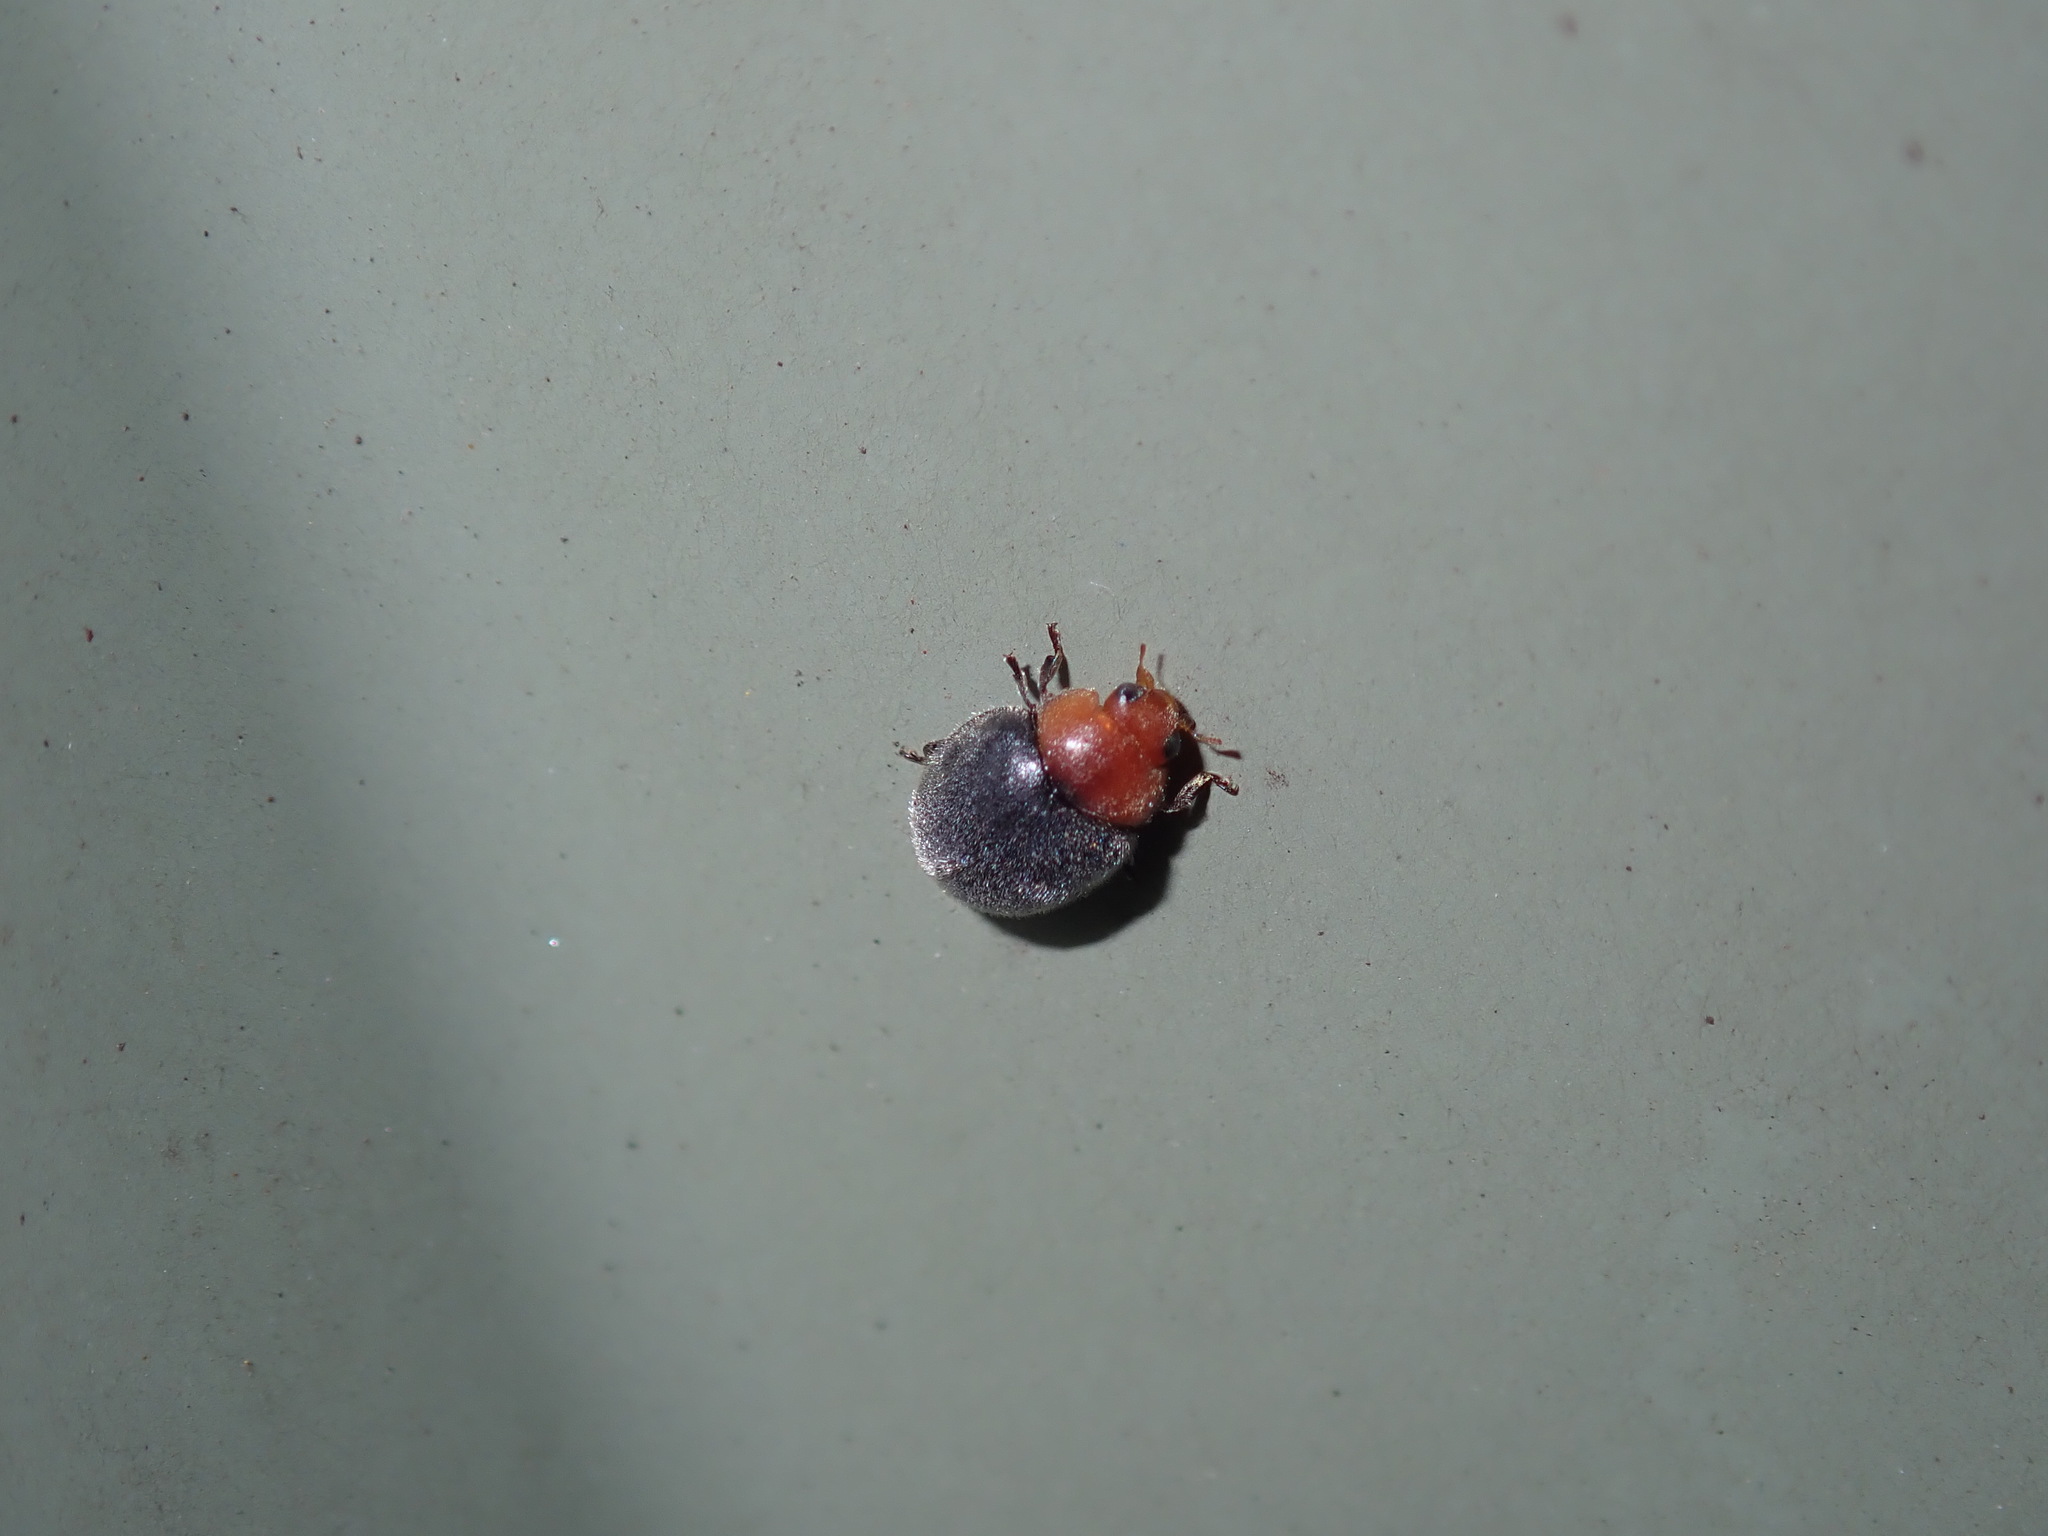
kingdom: Animalia
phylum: Arthropoda
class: Insecta
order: Coleoptera
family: Coccinellidae
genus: Cryptolaemus
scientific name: Cryptolaemus montrouzieri
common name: Mealybug destroyer
